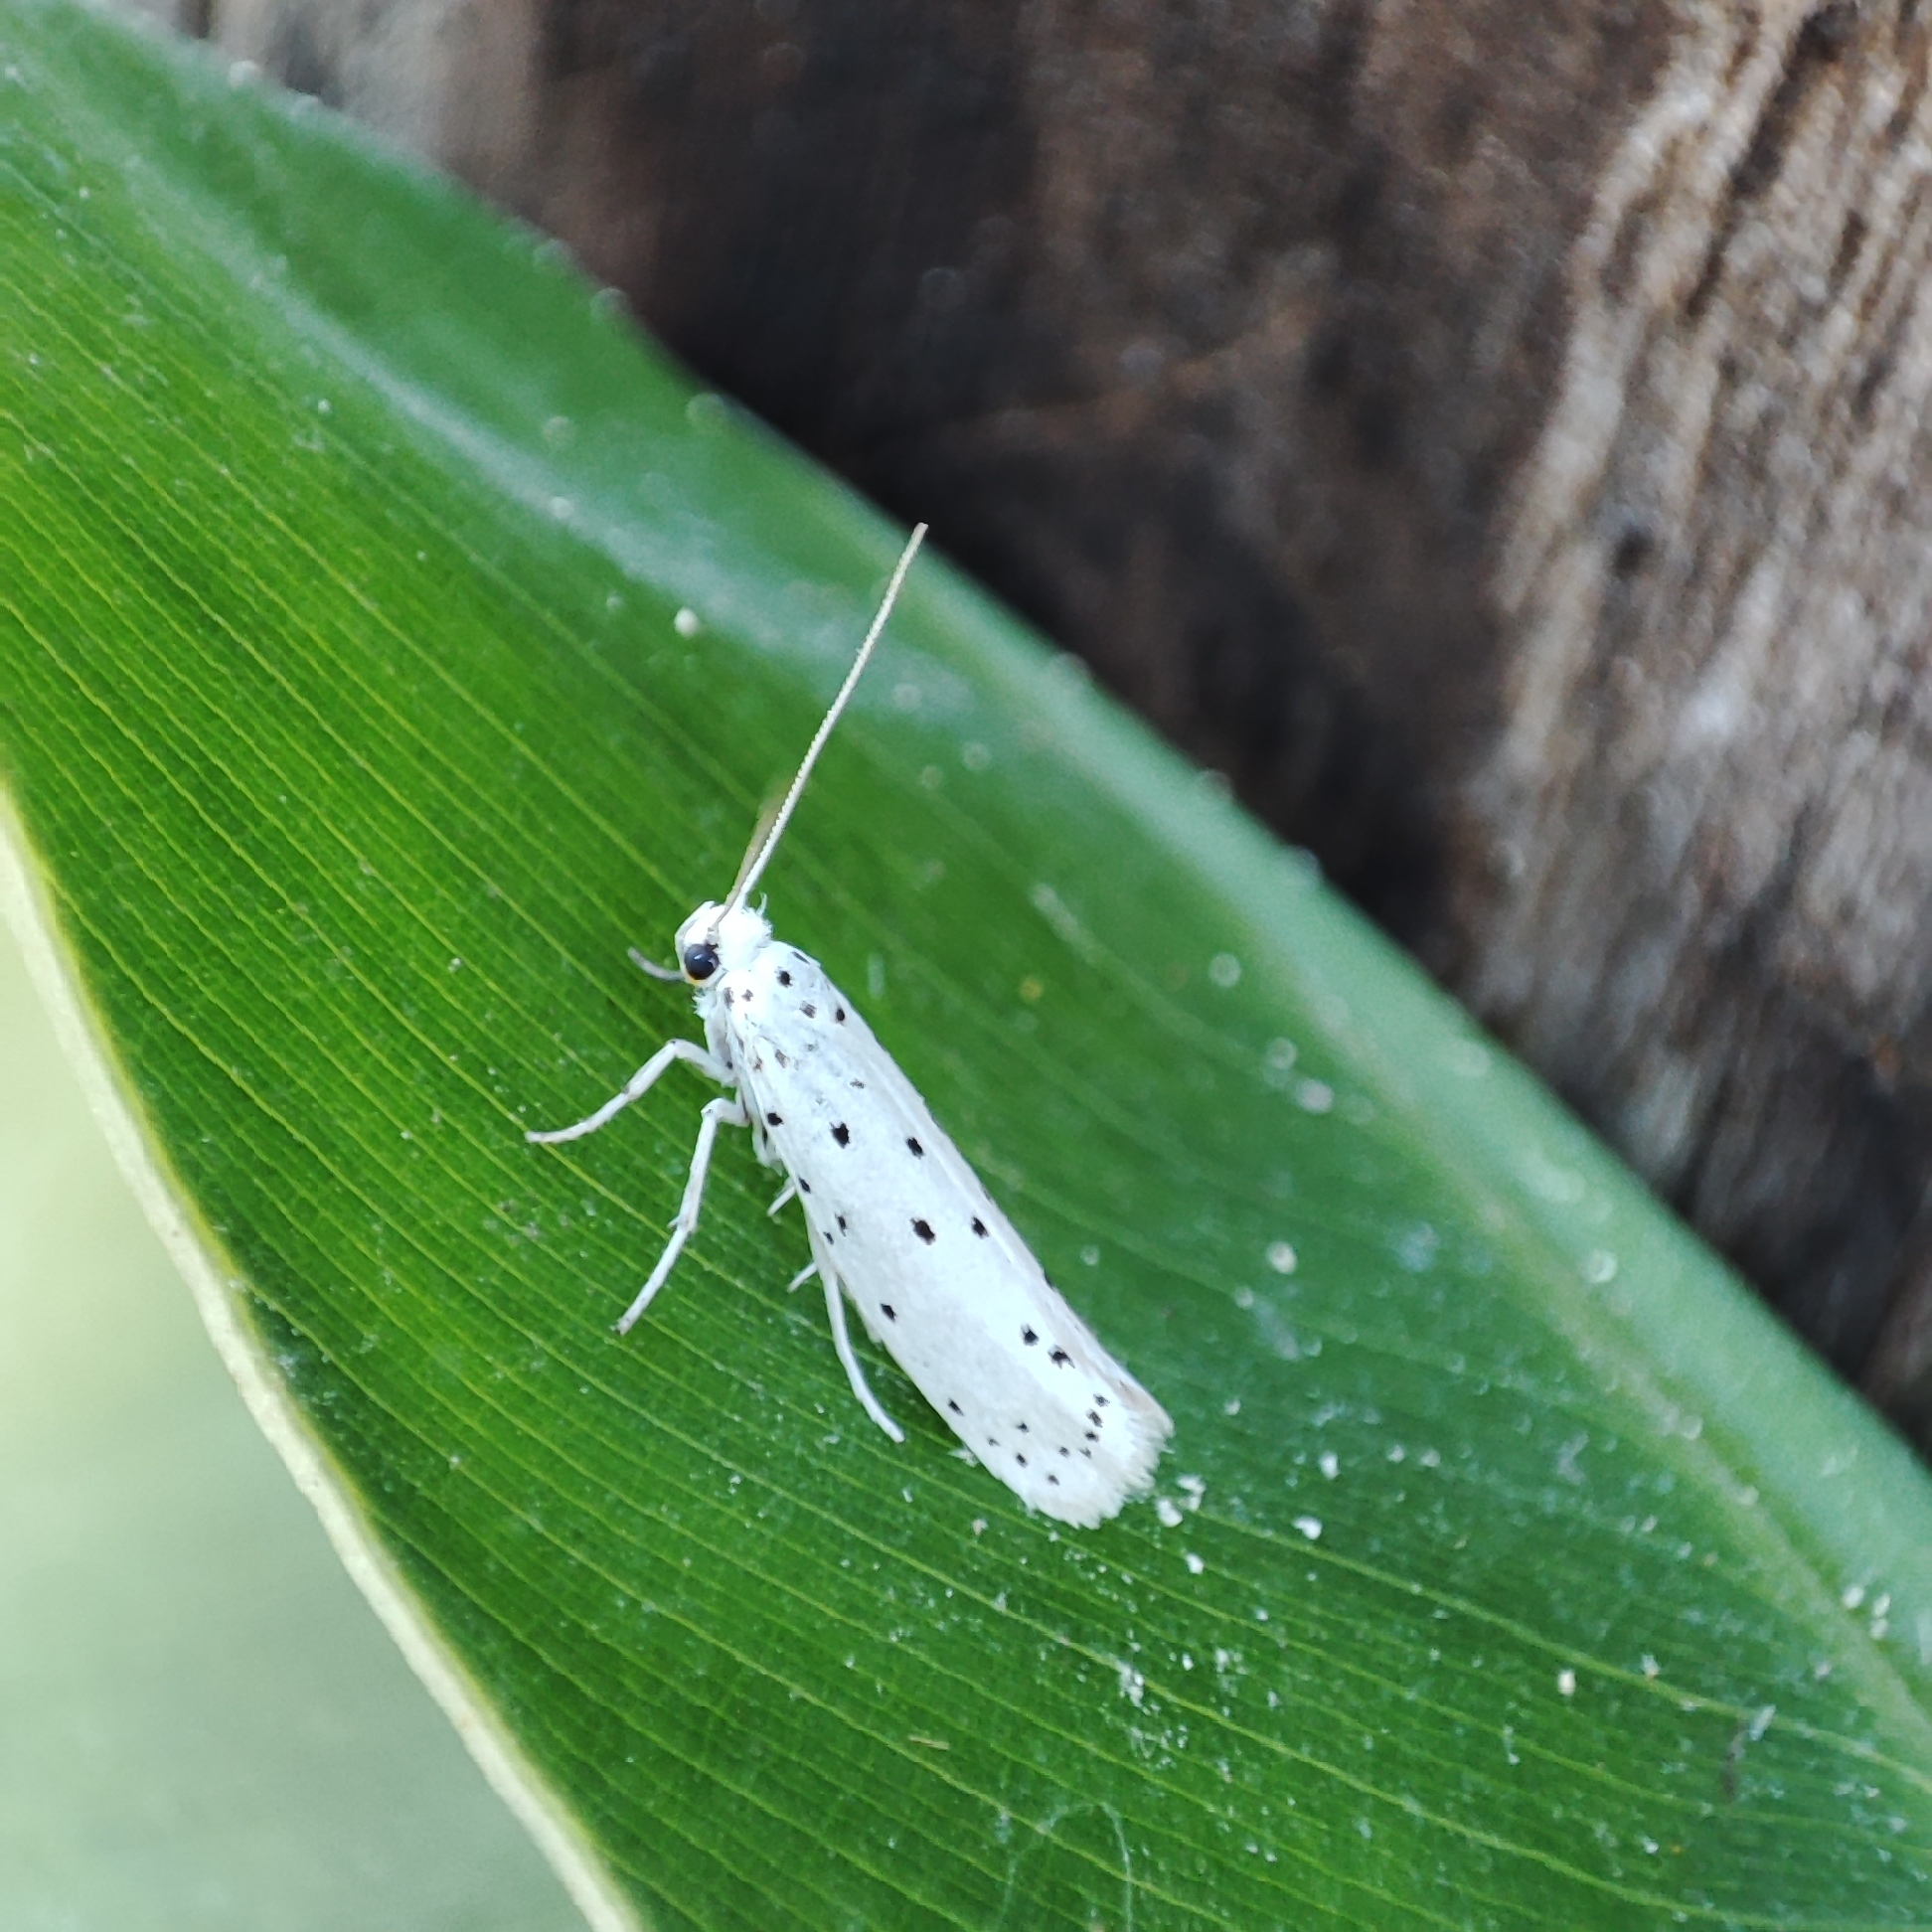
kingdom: Animalia
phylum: Arthropoda
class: Insecta
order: Lepidoptera
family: Yponomeutidae
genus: Yponomeuta
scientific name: Yponomeuta
